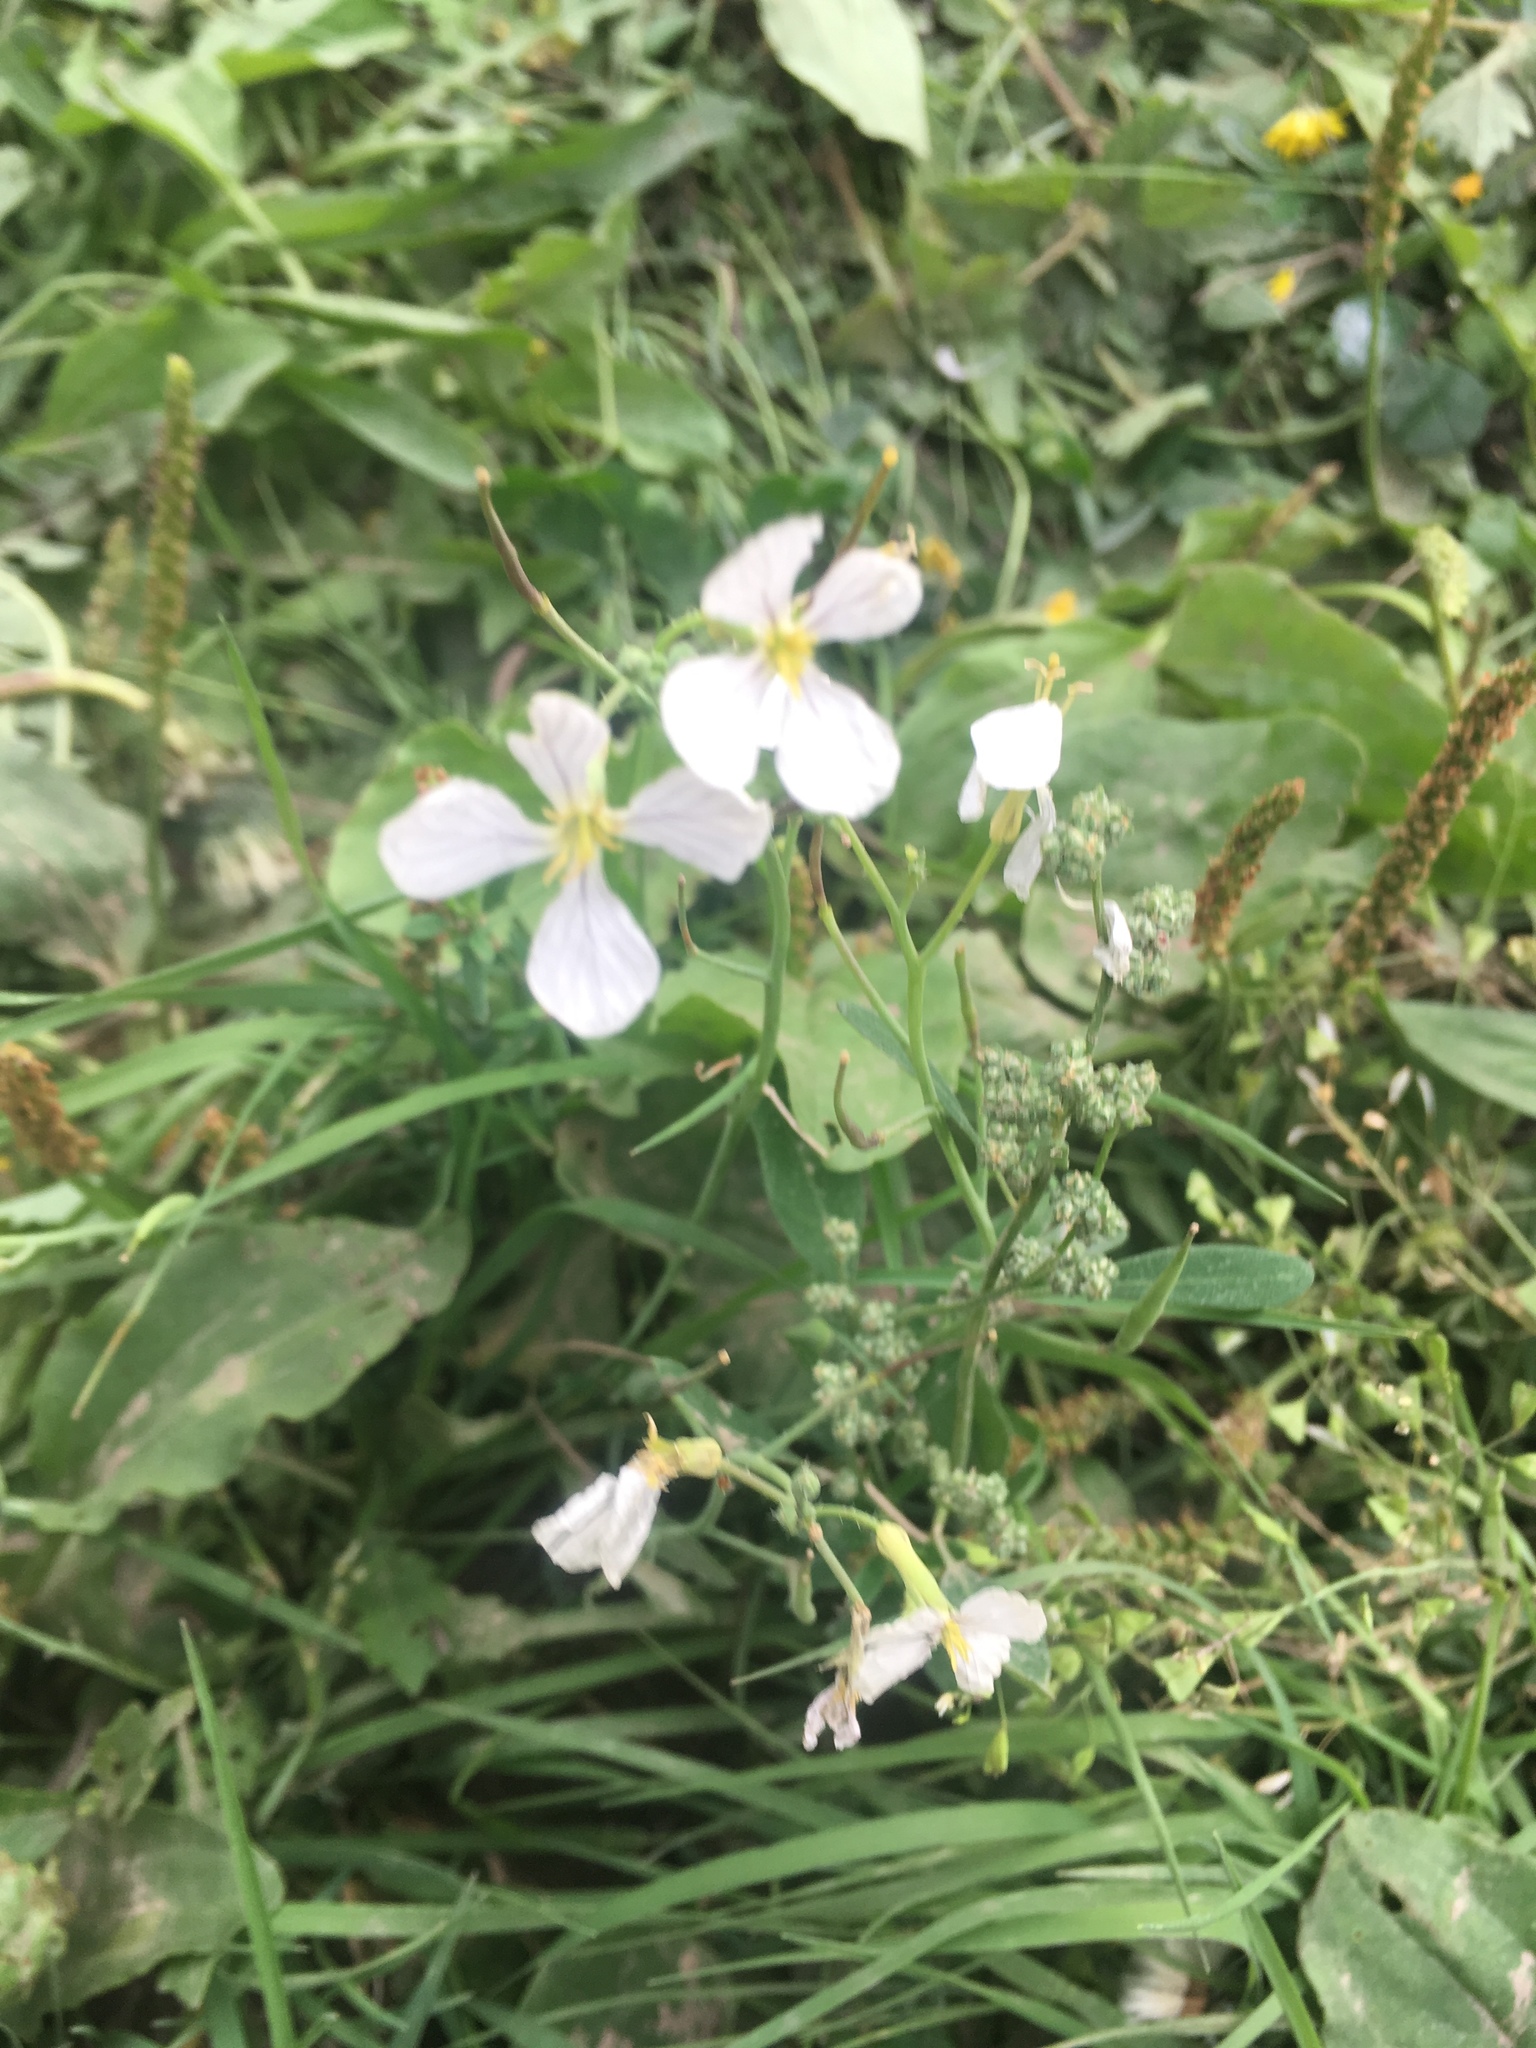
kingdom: Plantae
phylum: Tracheophyta
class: Magnoliopsida
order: Brassicales
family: Brassicaceae
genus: Raphanus
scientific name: Raphanus raphanistrum
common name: Wild radish
